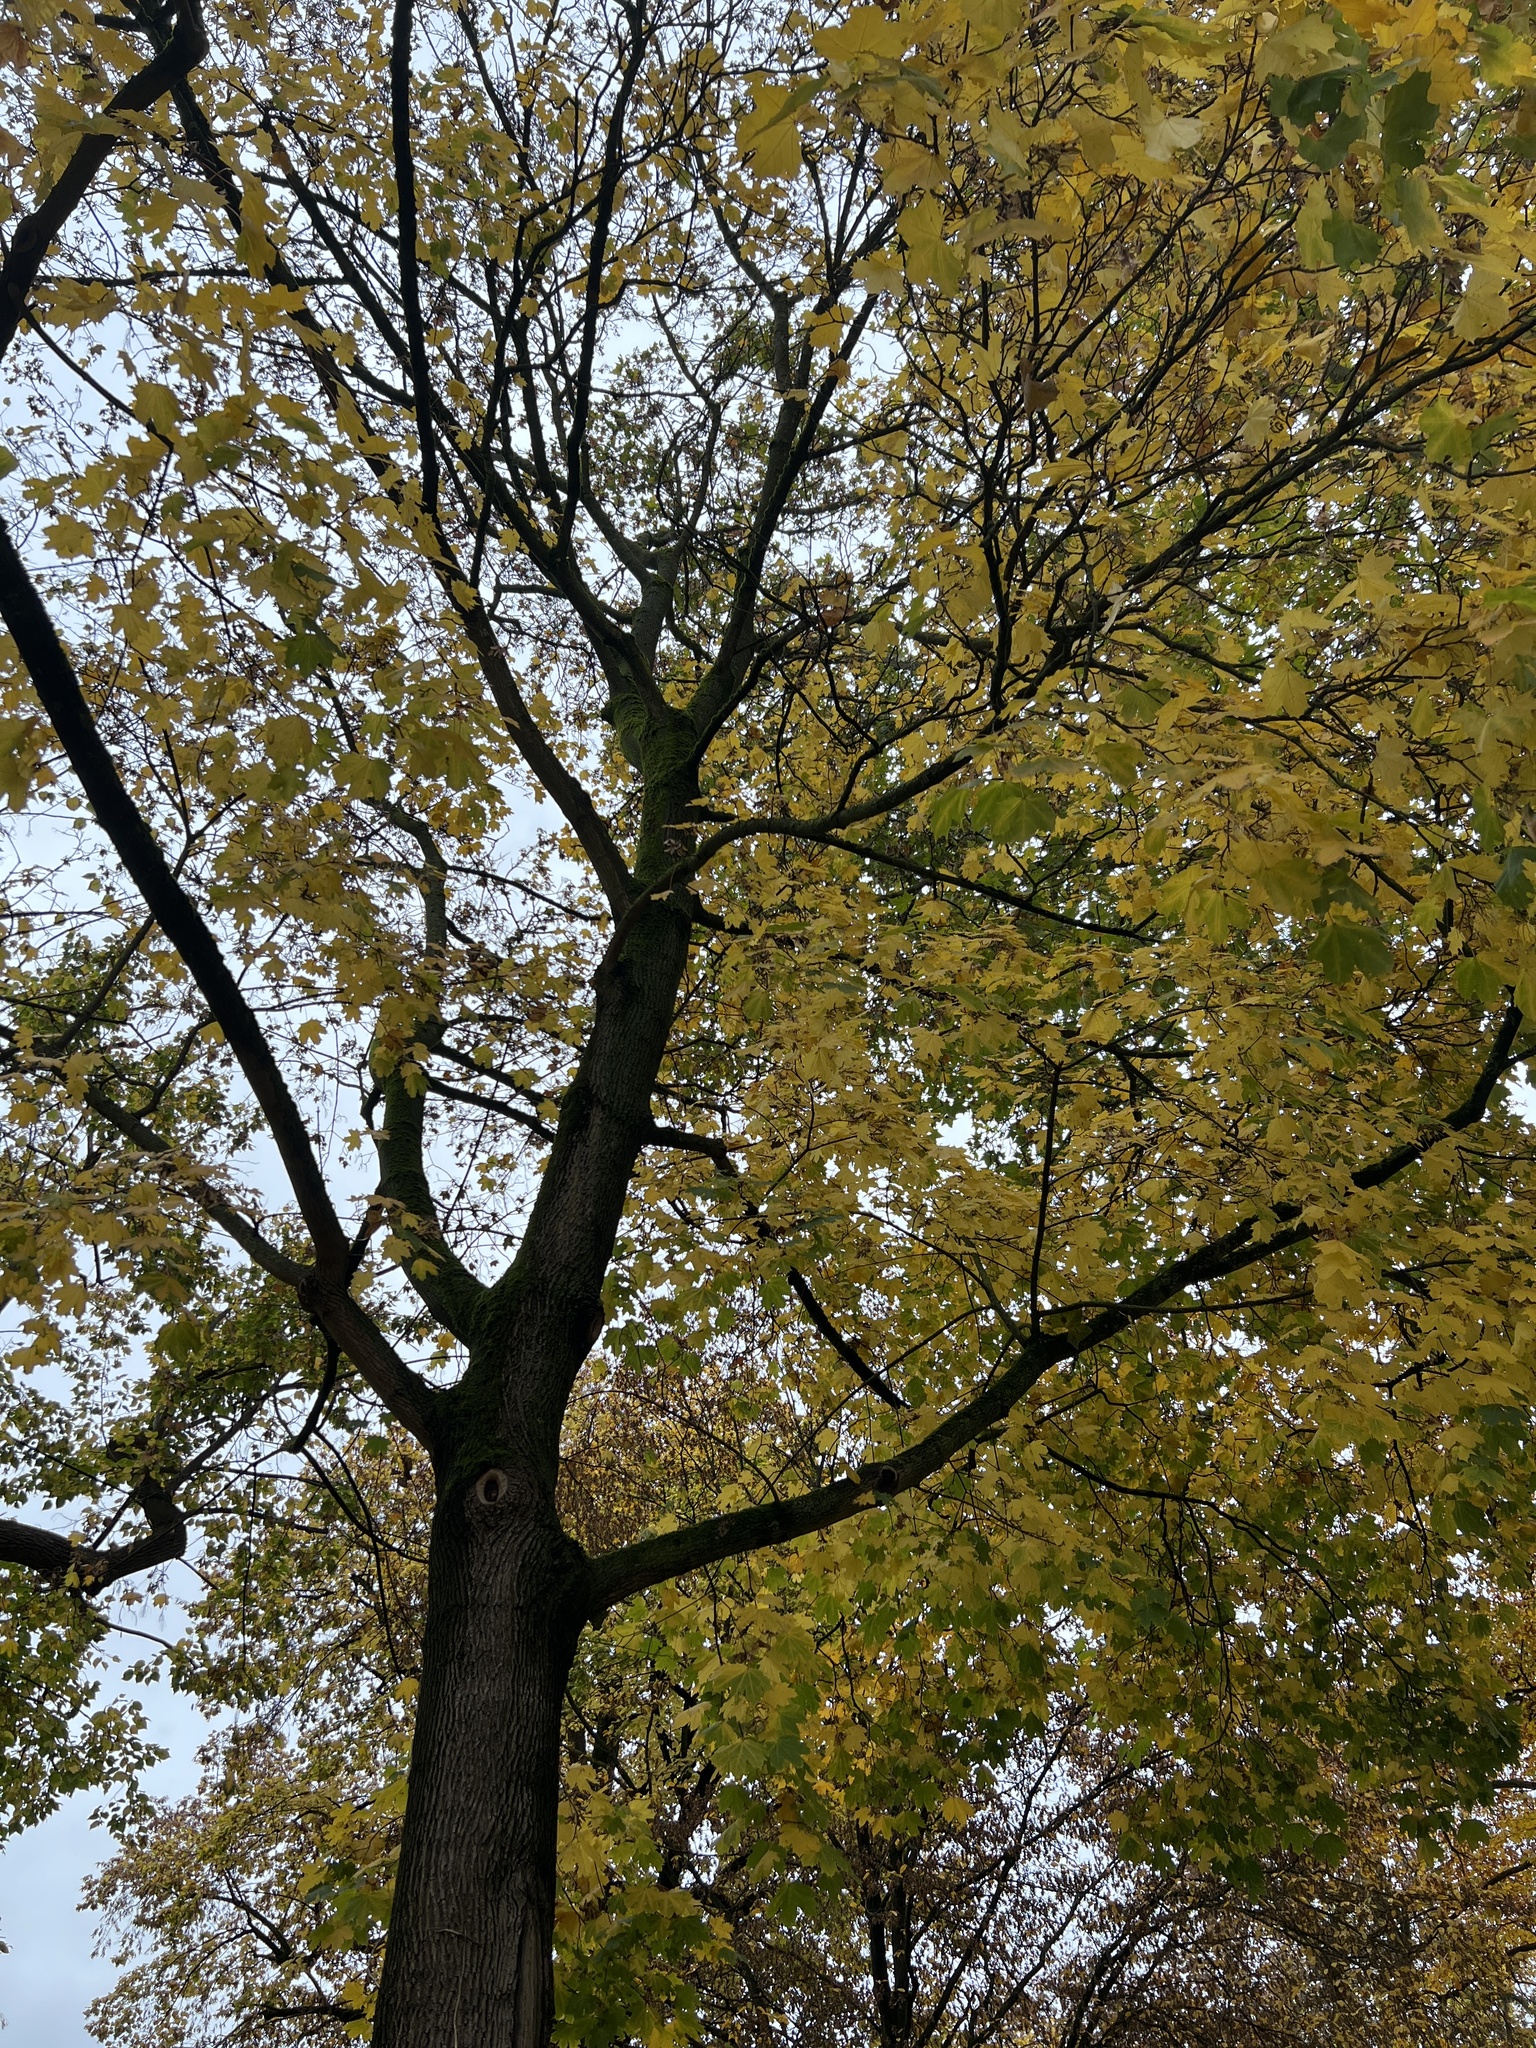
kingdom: Plantae
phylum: Tracheophyta
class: Magnoliopsida
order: Sapindales
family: Sapindaceae
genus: Acer
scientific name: Acer platanoides
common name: Norway maple
